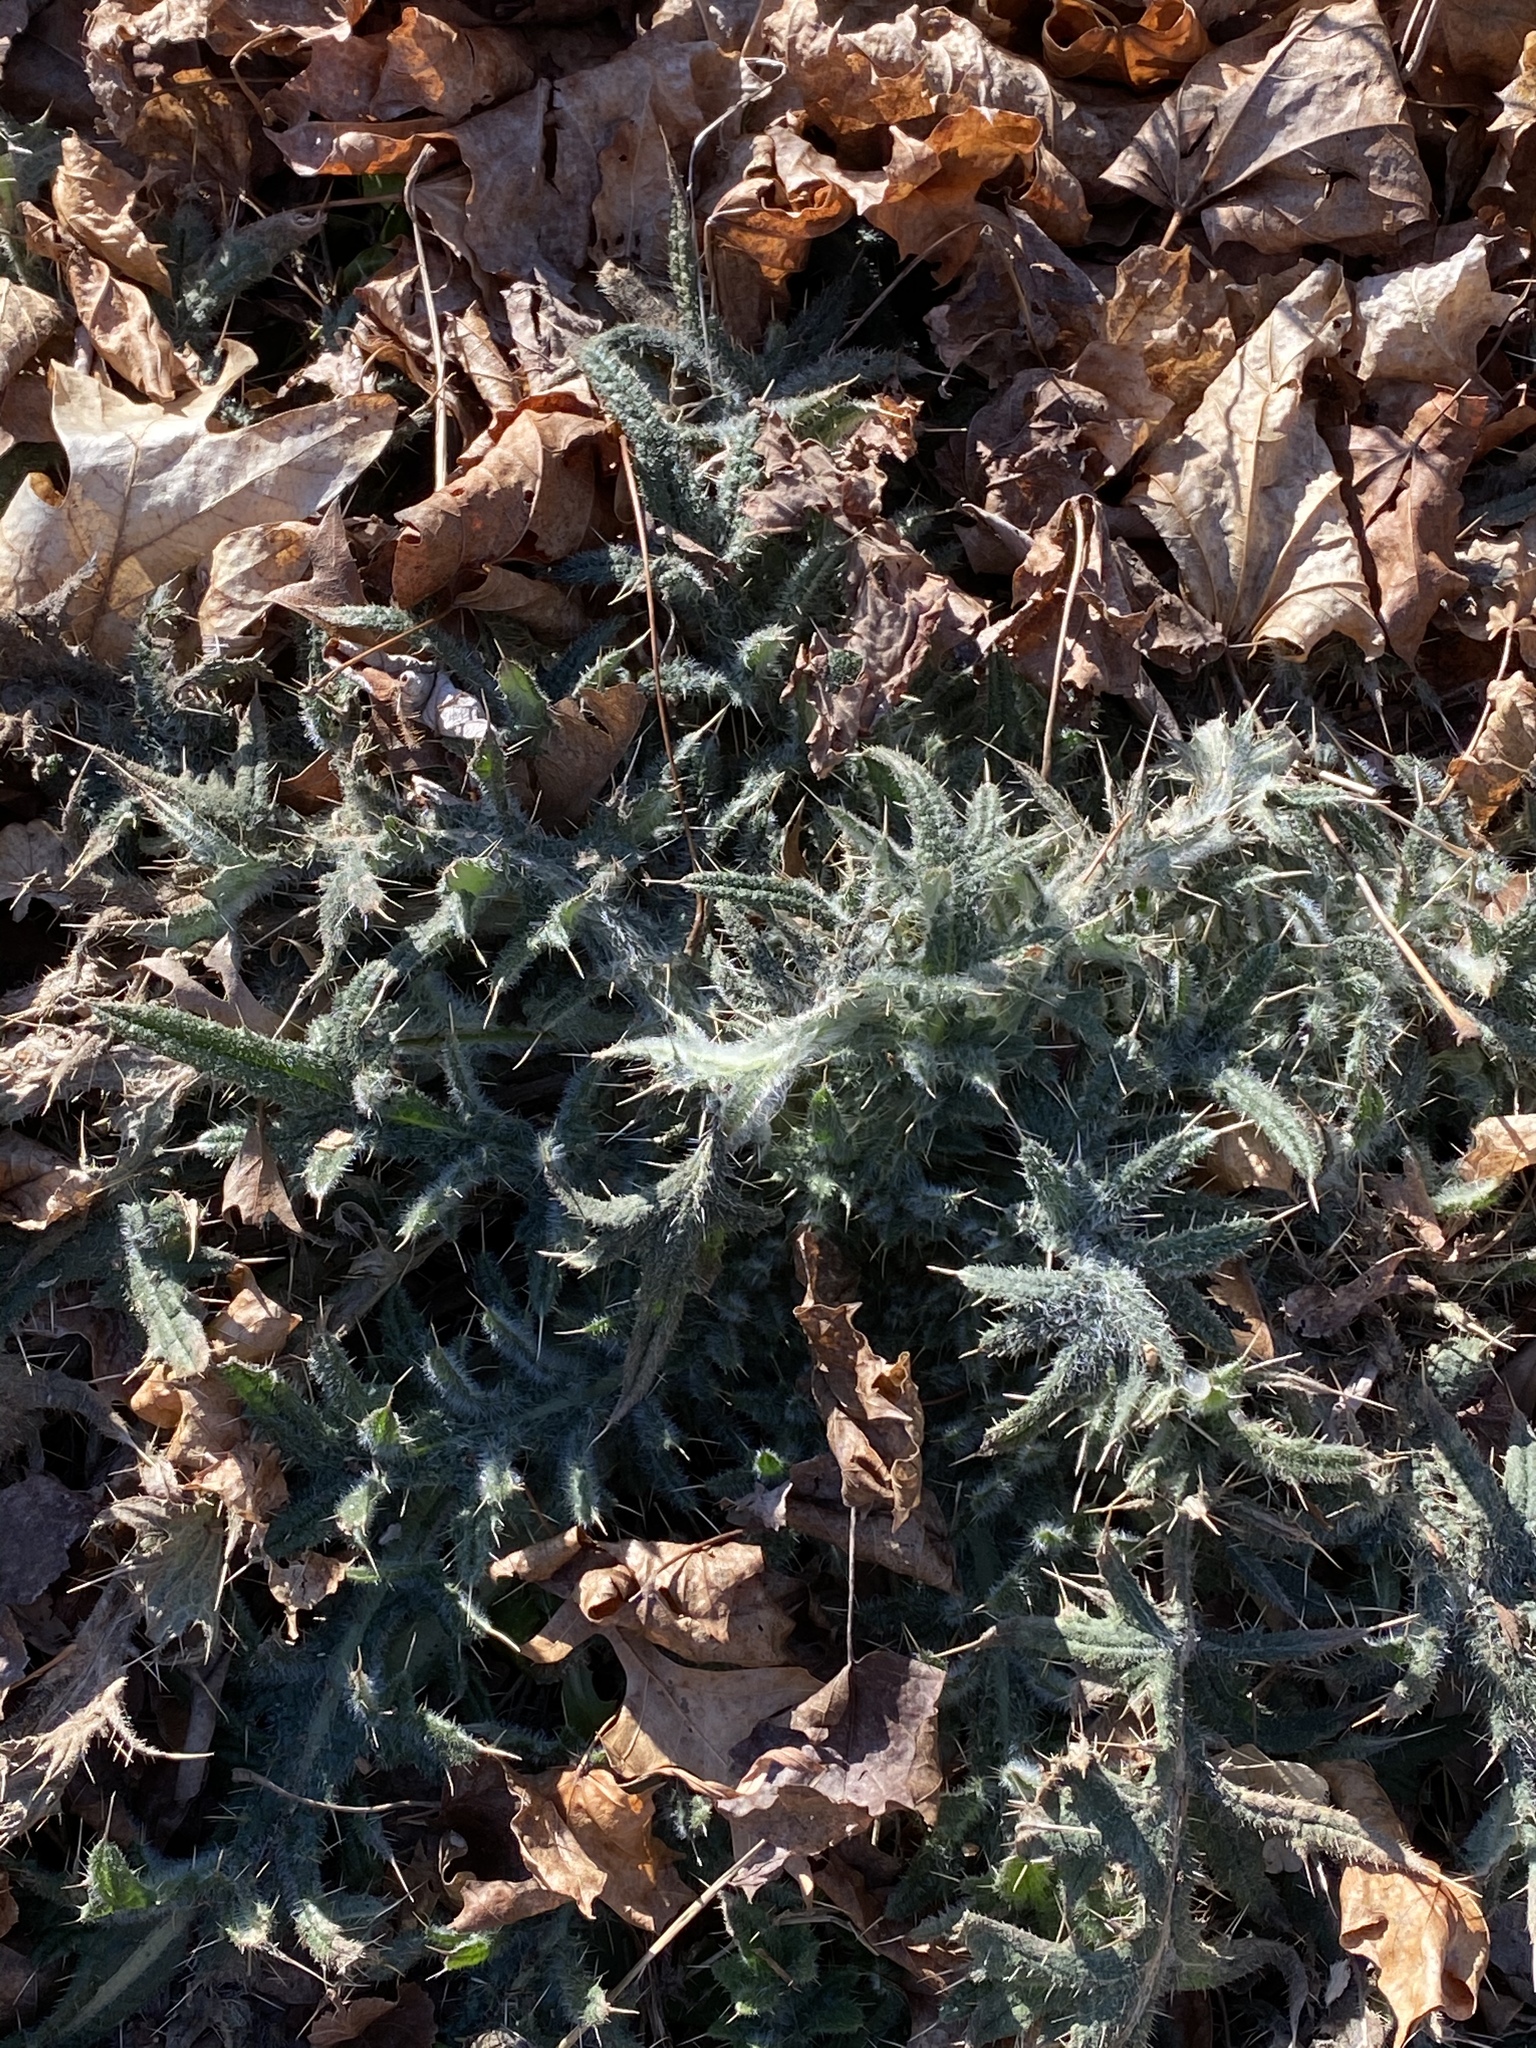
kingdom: Plantae
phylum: Tracheophyta
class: Magnoliopsida
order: Asterales
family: Asteraceae
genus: Cirsium
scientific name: Cirsium vulgare
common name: Bull thistle
